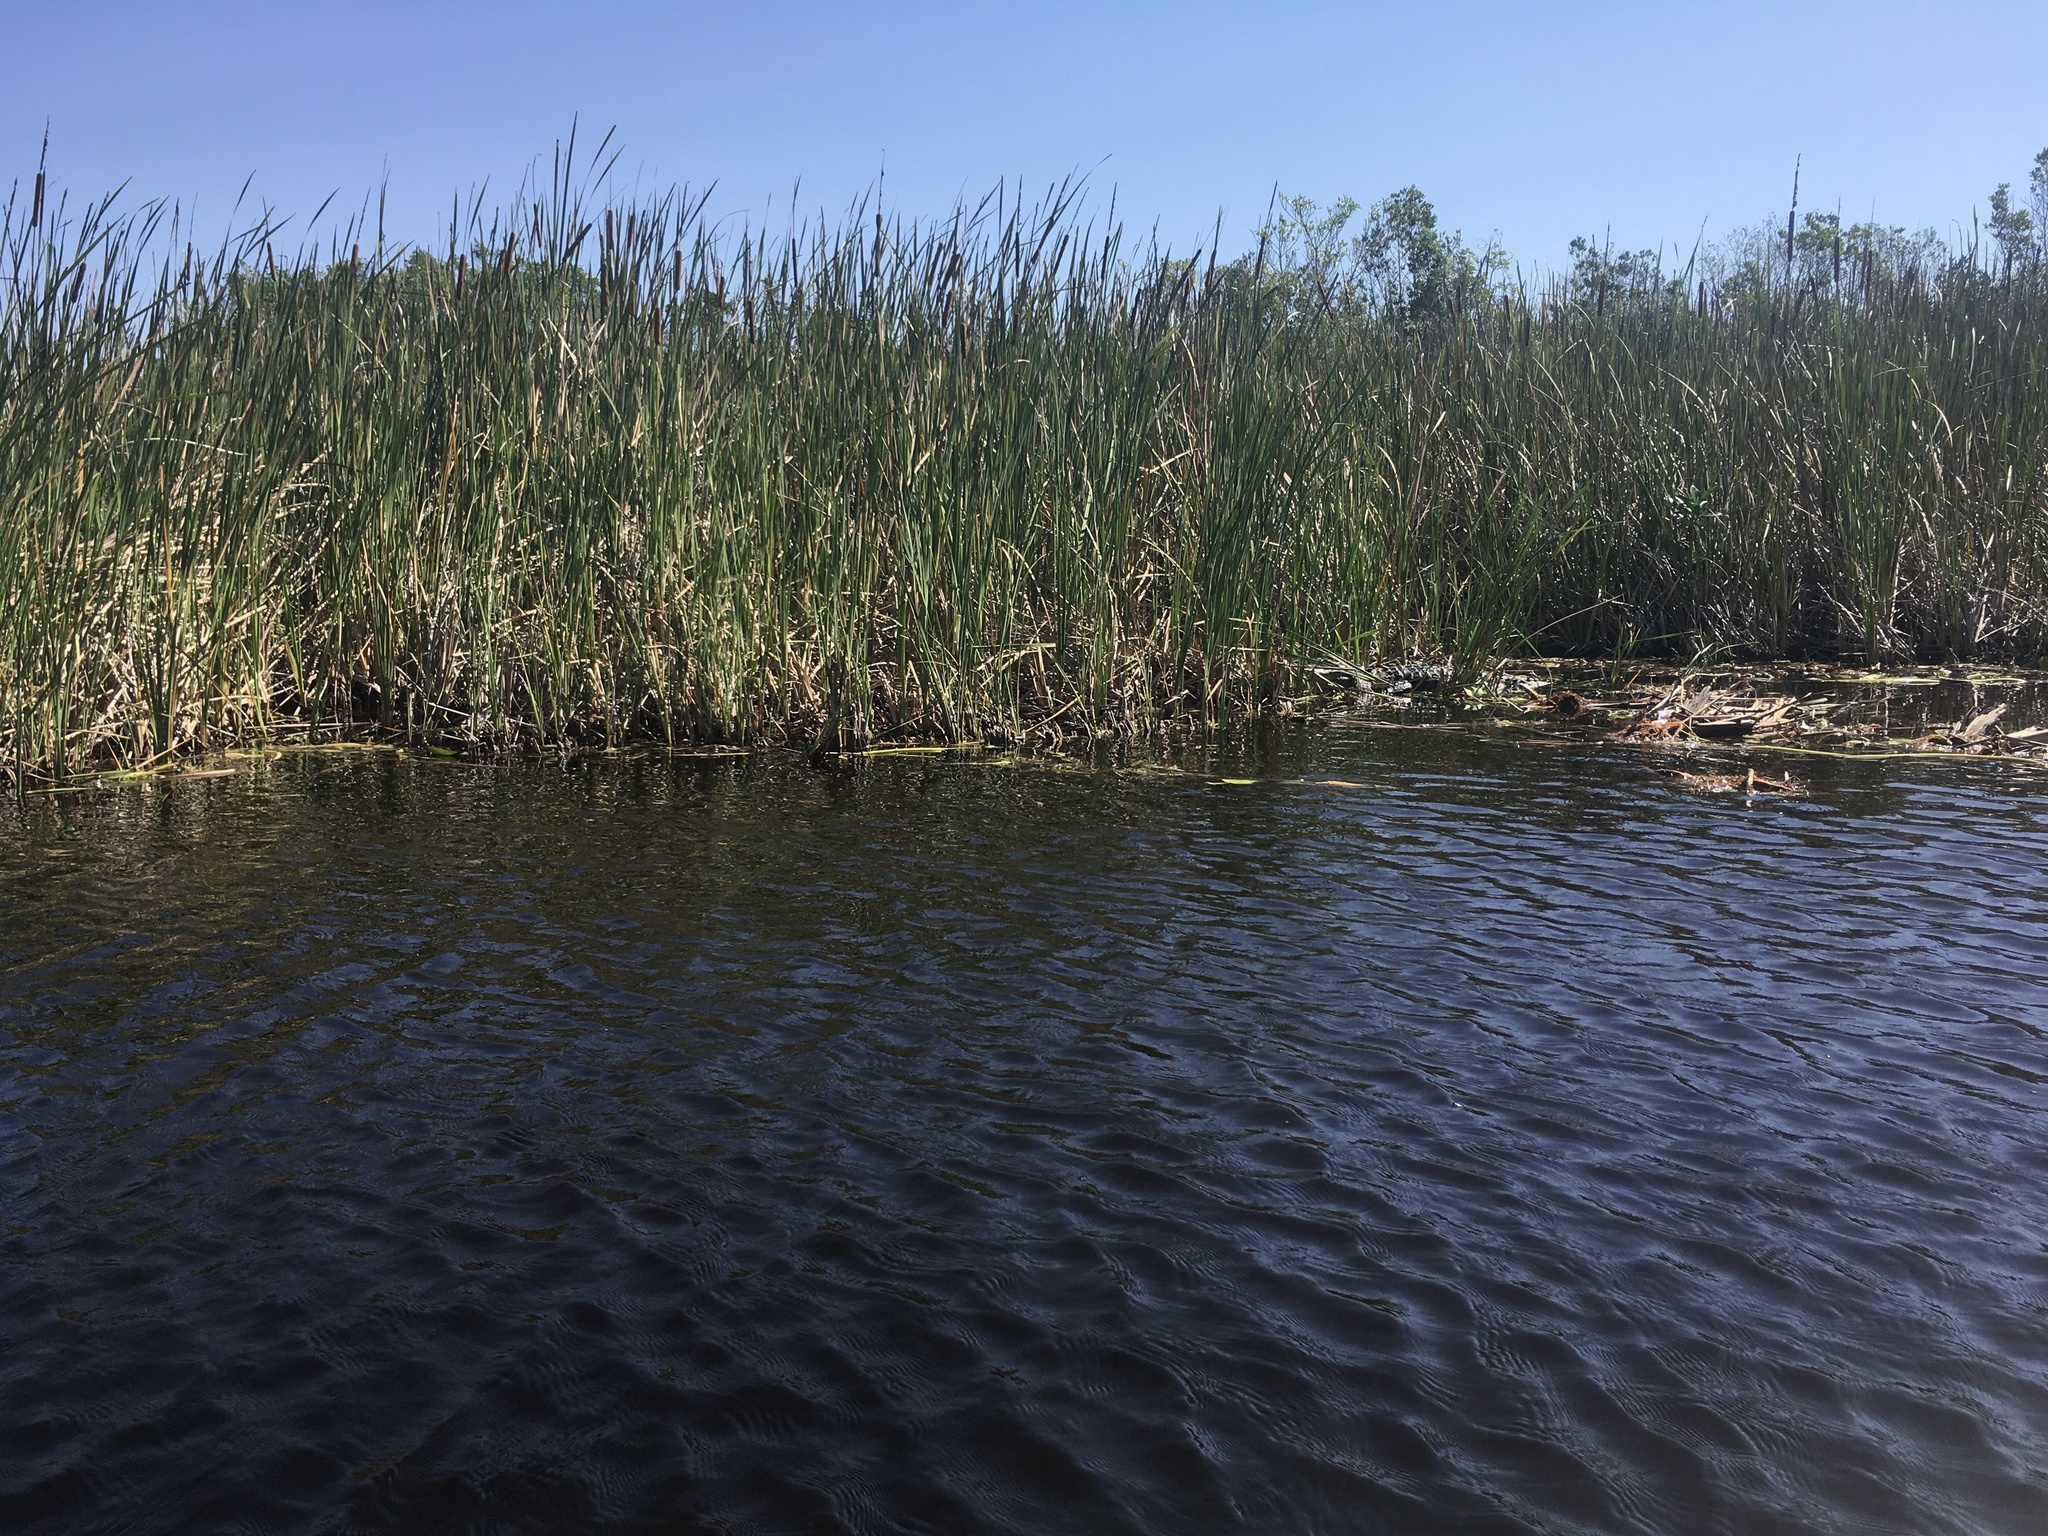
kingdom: Animalia
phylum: Chordata
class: Crocodylia
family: Alligatoridae
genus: Alligator
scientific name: Alligator mississippiensis
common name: American alligator
